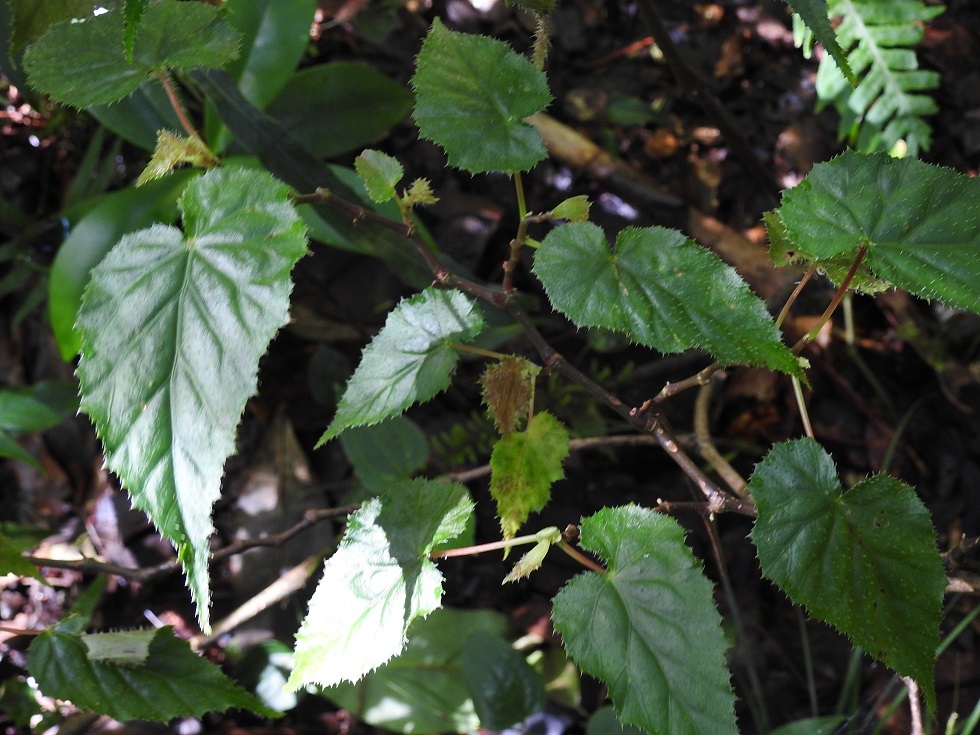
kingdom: Plantae
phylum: Tracheophyta
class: Magnoliopsida
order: Cucurbitales
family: Begoniaceae
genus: Begonia
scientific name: Begonia oaxacana
